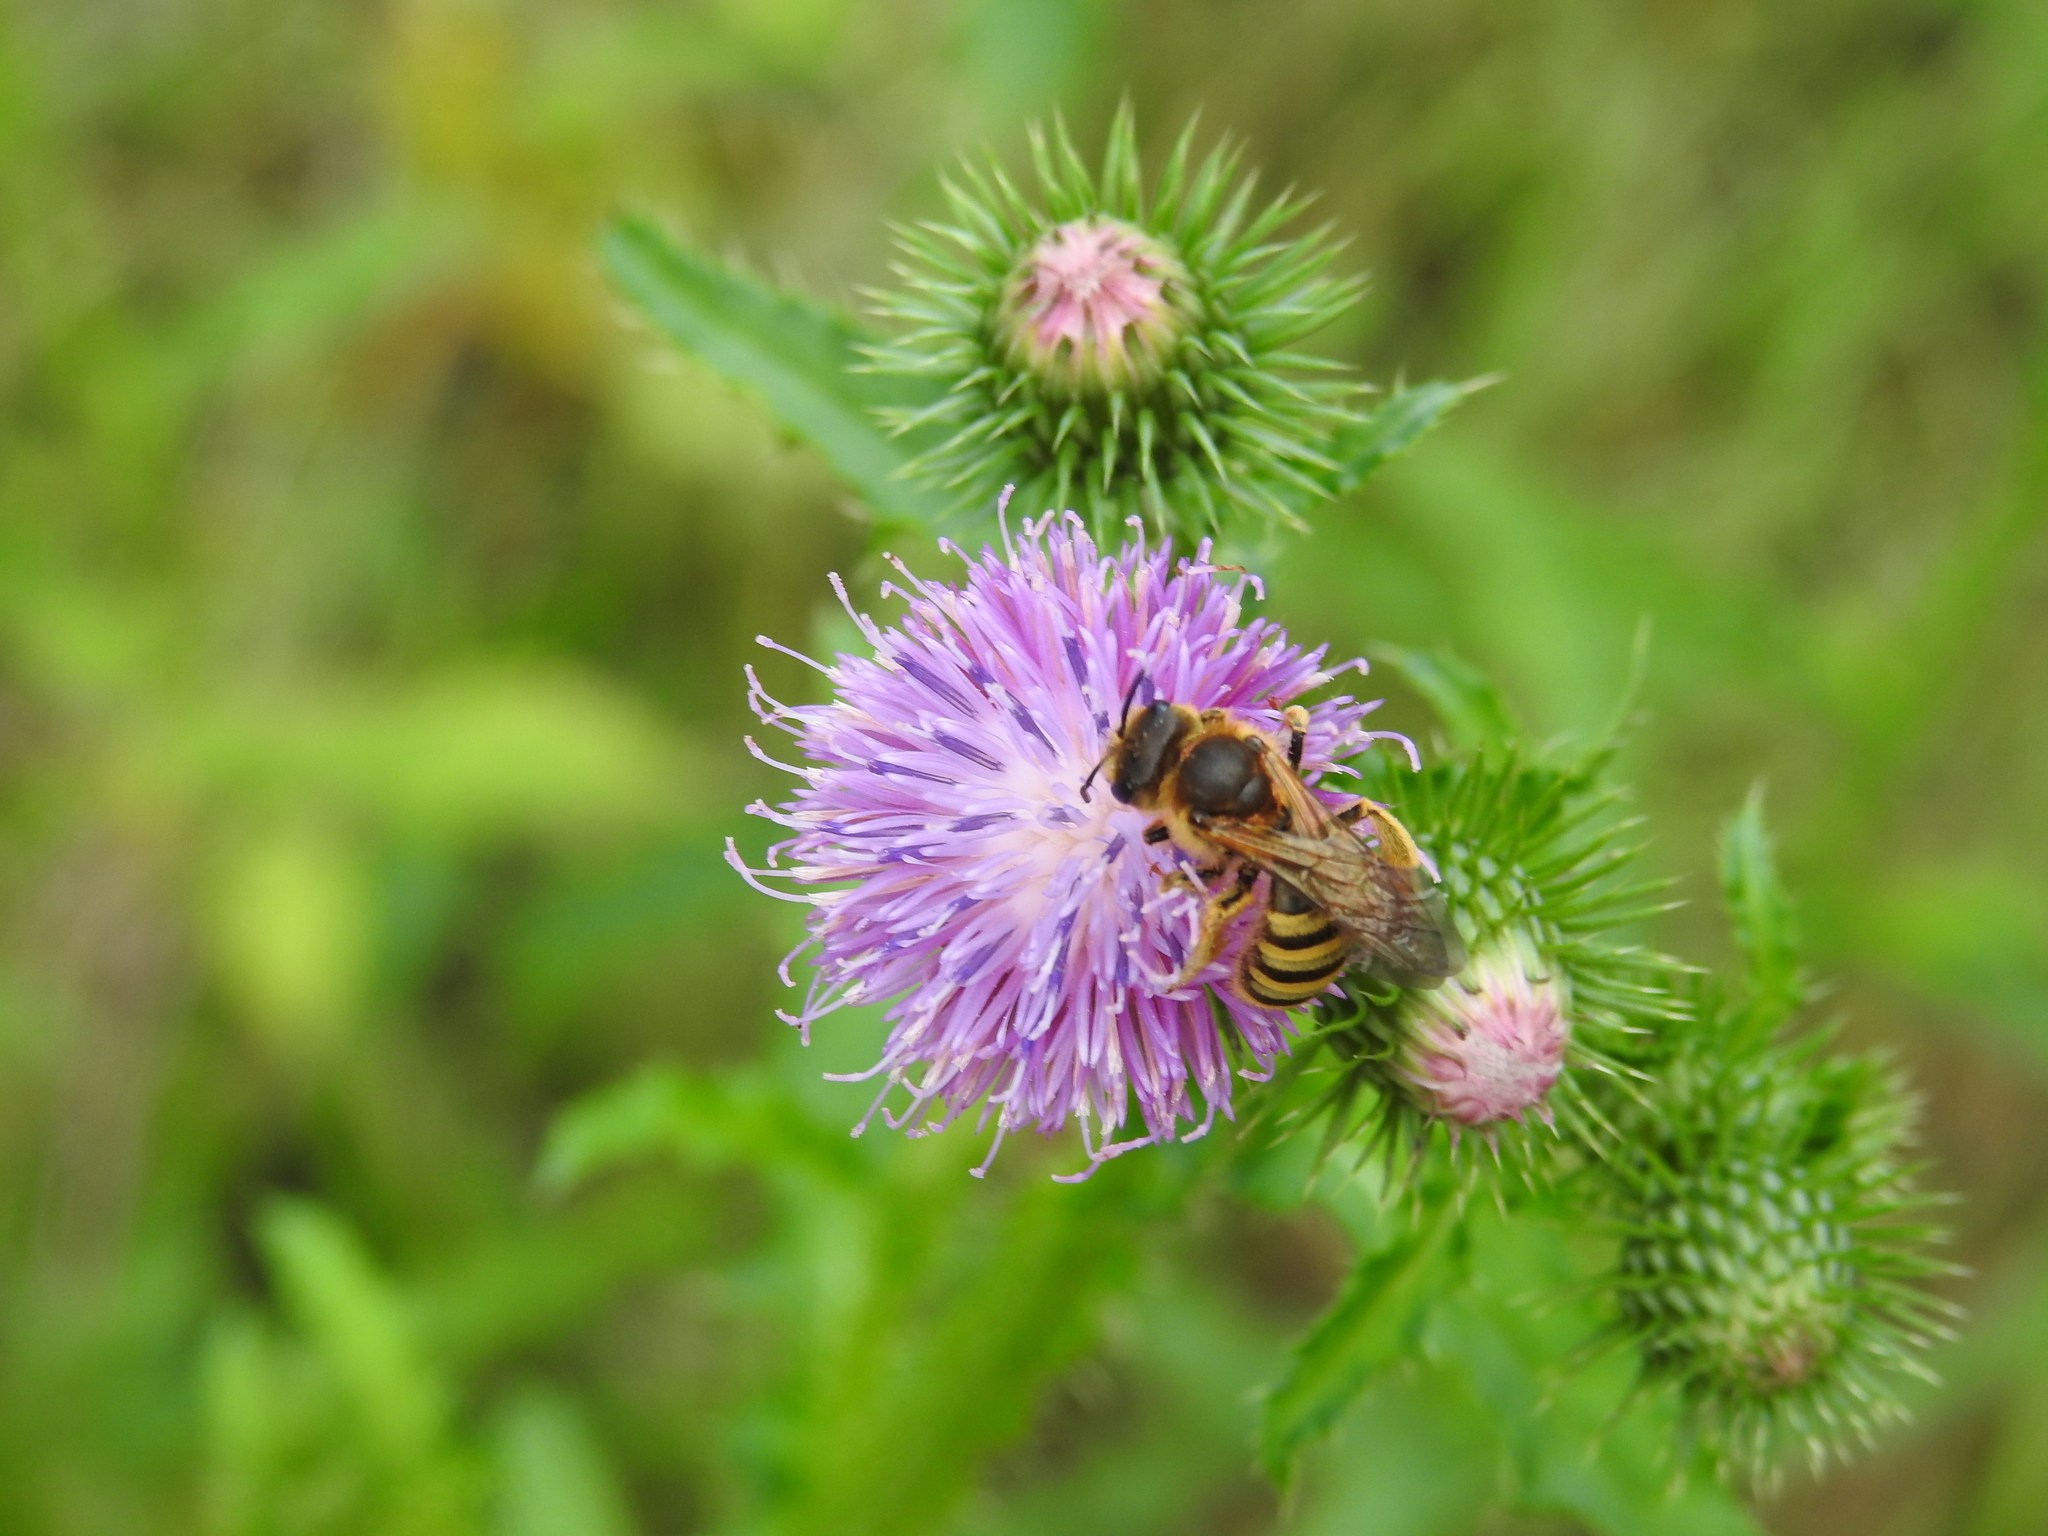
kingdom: Animalia
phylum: Arthropoda
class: Insecta
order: Hymenoptera
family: Halictidae
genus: Halictus
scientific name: Halictus scabiosae
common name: Great banded furrow bee
